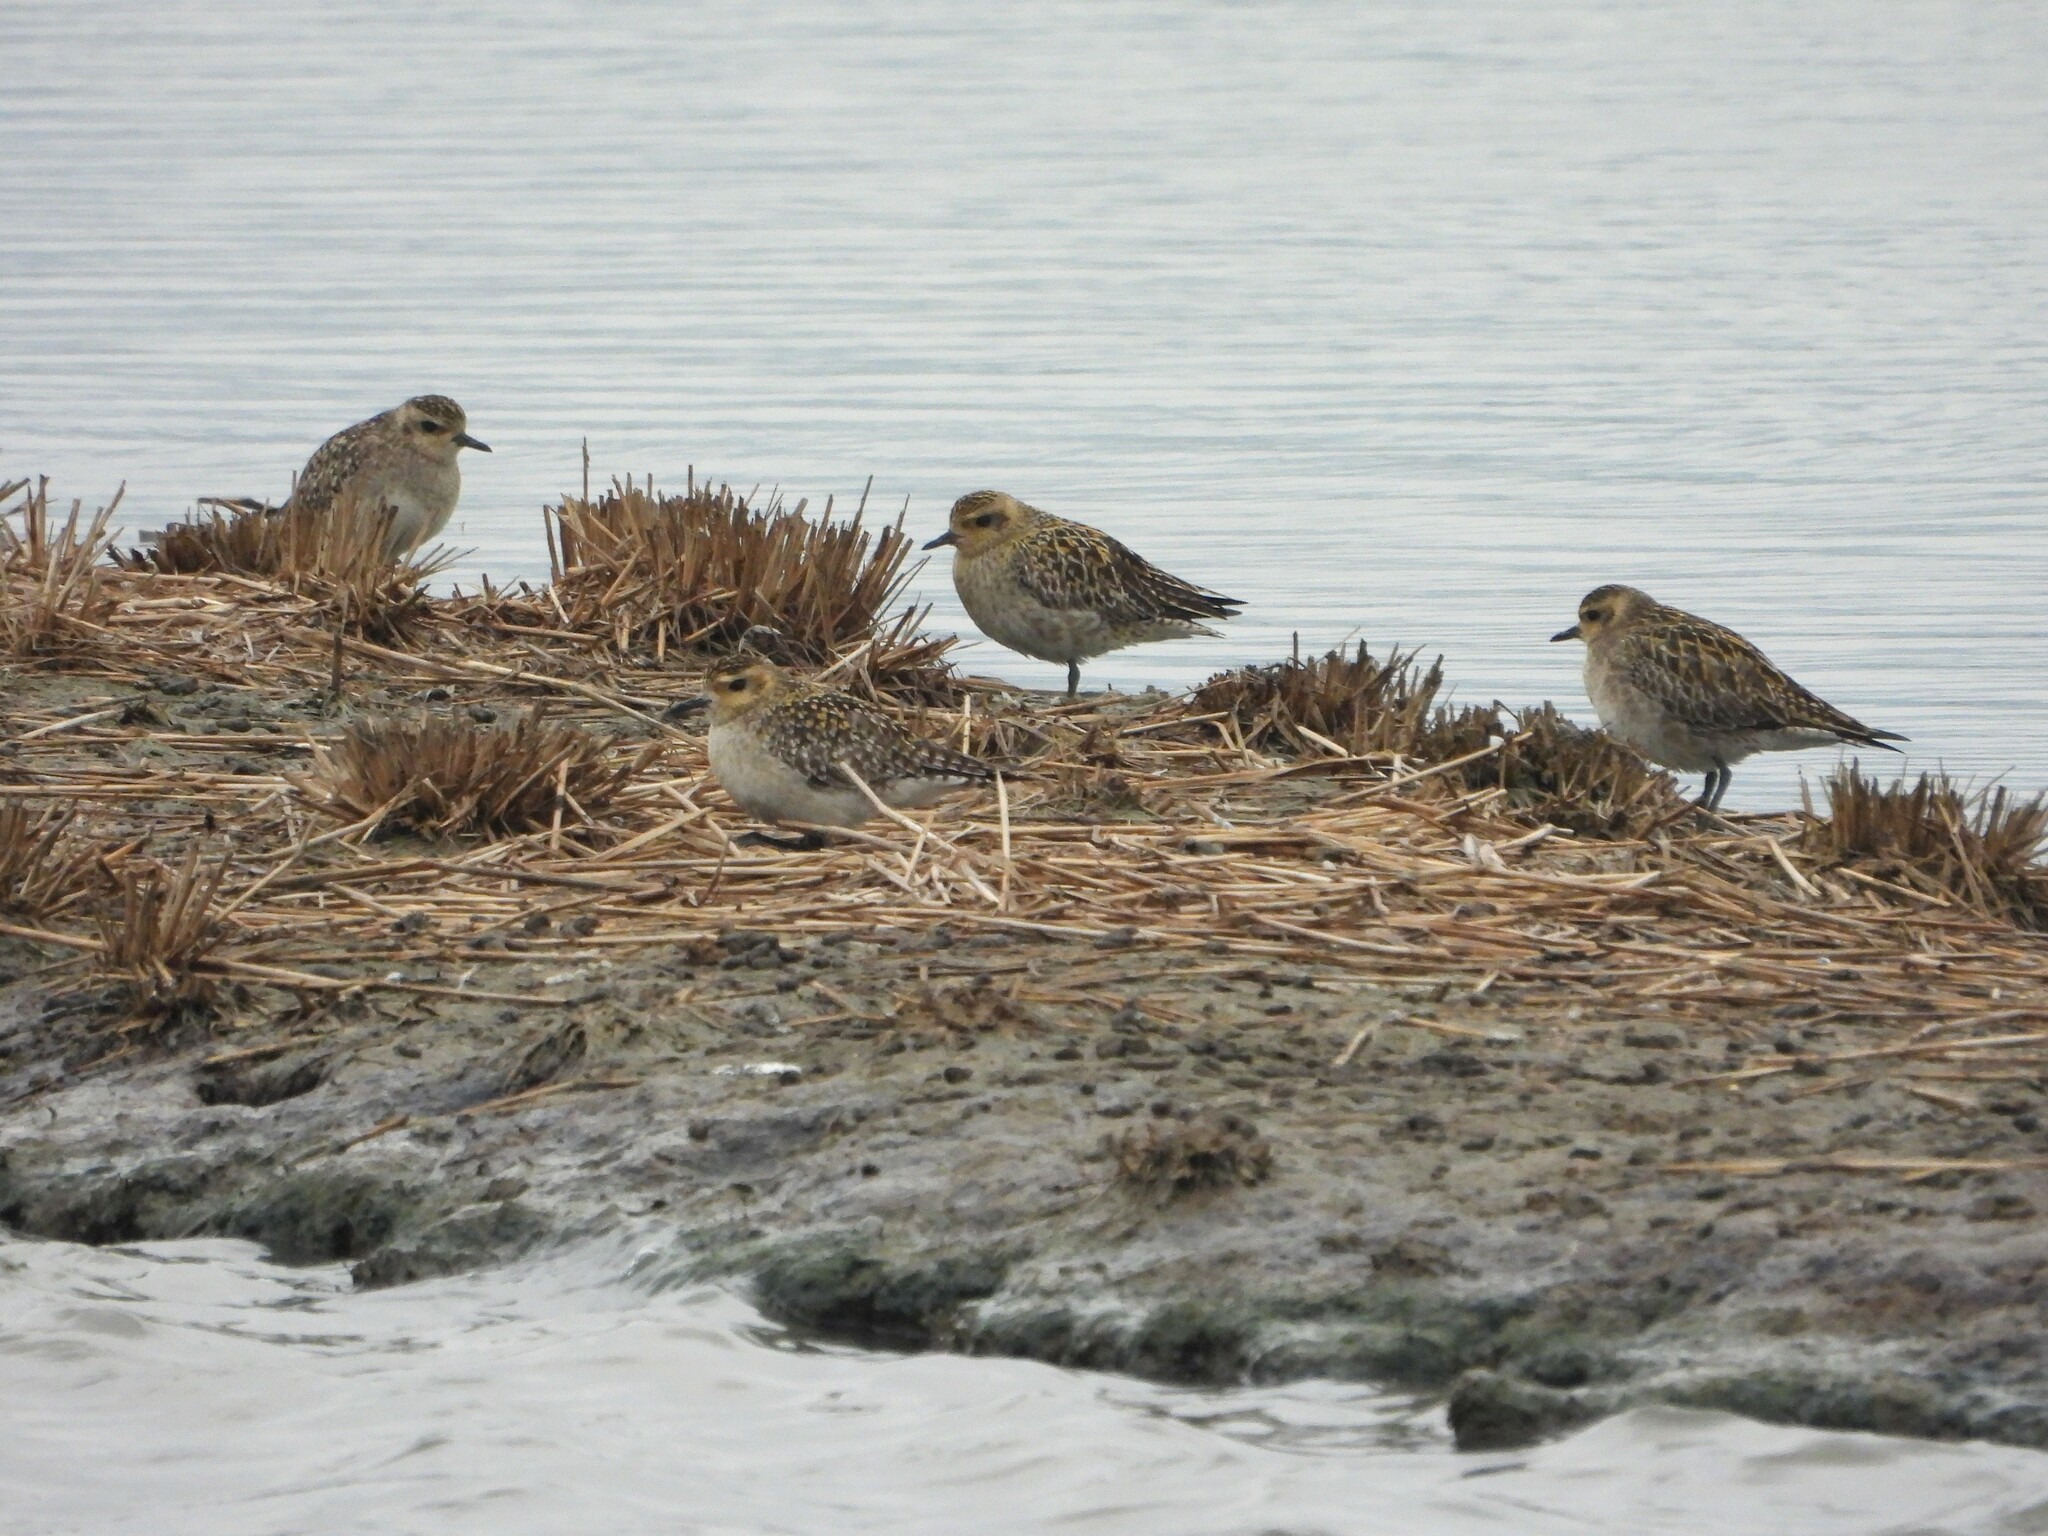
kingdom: Animalia
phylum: Chordata
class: Aves
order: Charadriiformes
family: Charadriidae
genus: Pluvialis
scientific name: Pluvialis fulva
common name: Pacific golden plover
